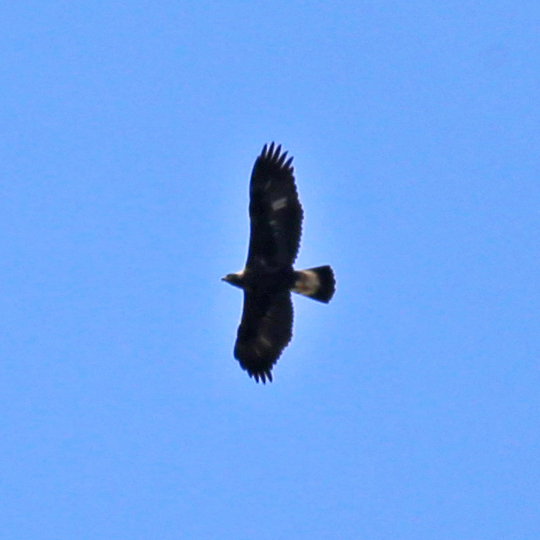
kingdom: Animalia
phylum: Chordata
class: Aves
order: Accipitriformes
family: Accipitridae
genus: Aquila
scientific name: Aquila chrysaetos
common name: Golden eagle
